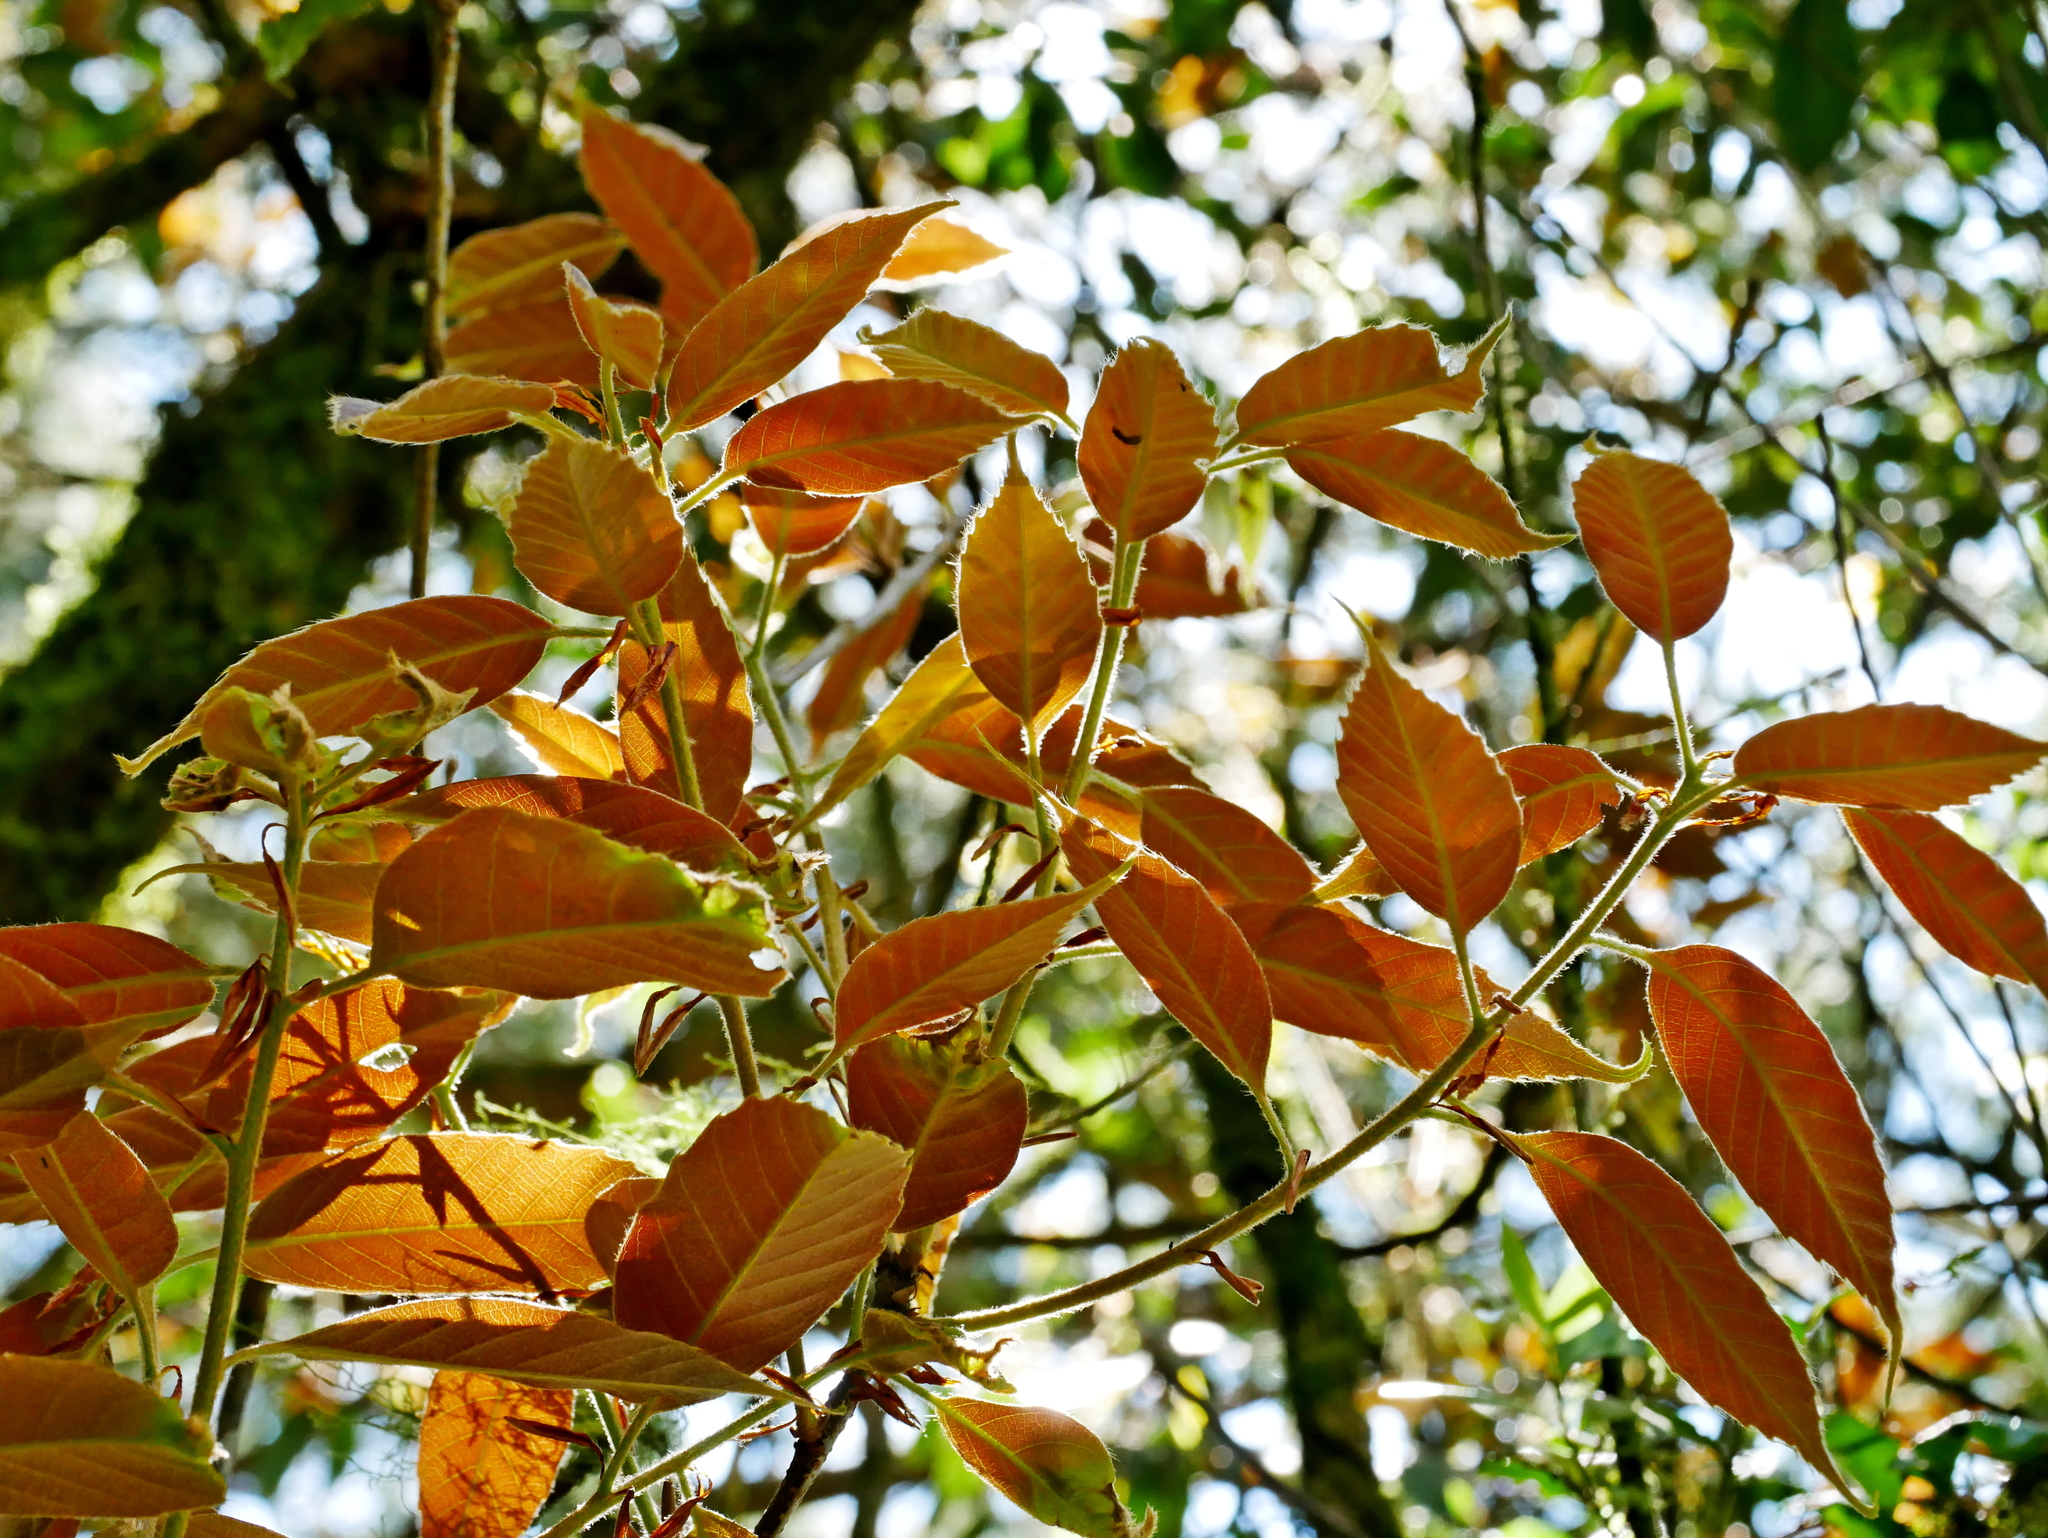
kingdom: Plantae
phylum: Tracheophyta
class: Magnoliopsida
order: Fagales
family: Fagaceae
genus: Quercus
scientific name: Quercus morii
